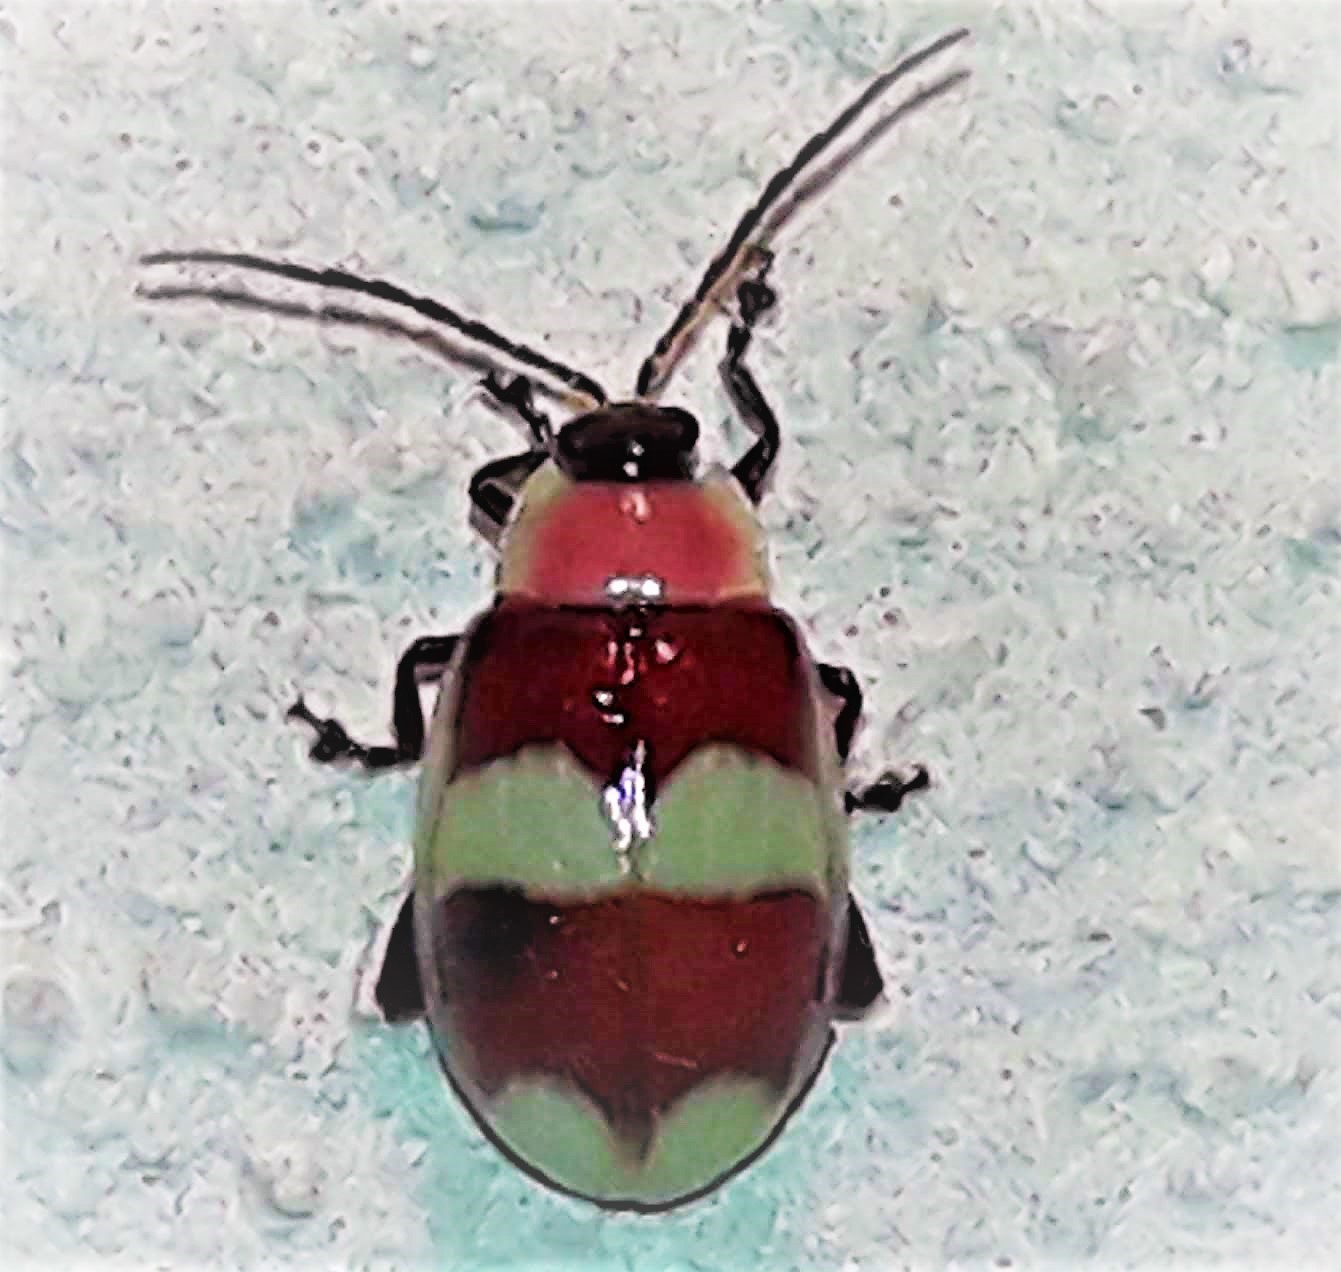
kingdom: Animalia
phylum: Arthropoda
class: Insecta
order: Coleoptera
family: Chrysomelidae
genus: Asphaera
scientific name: Asphaera
